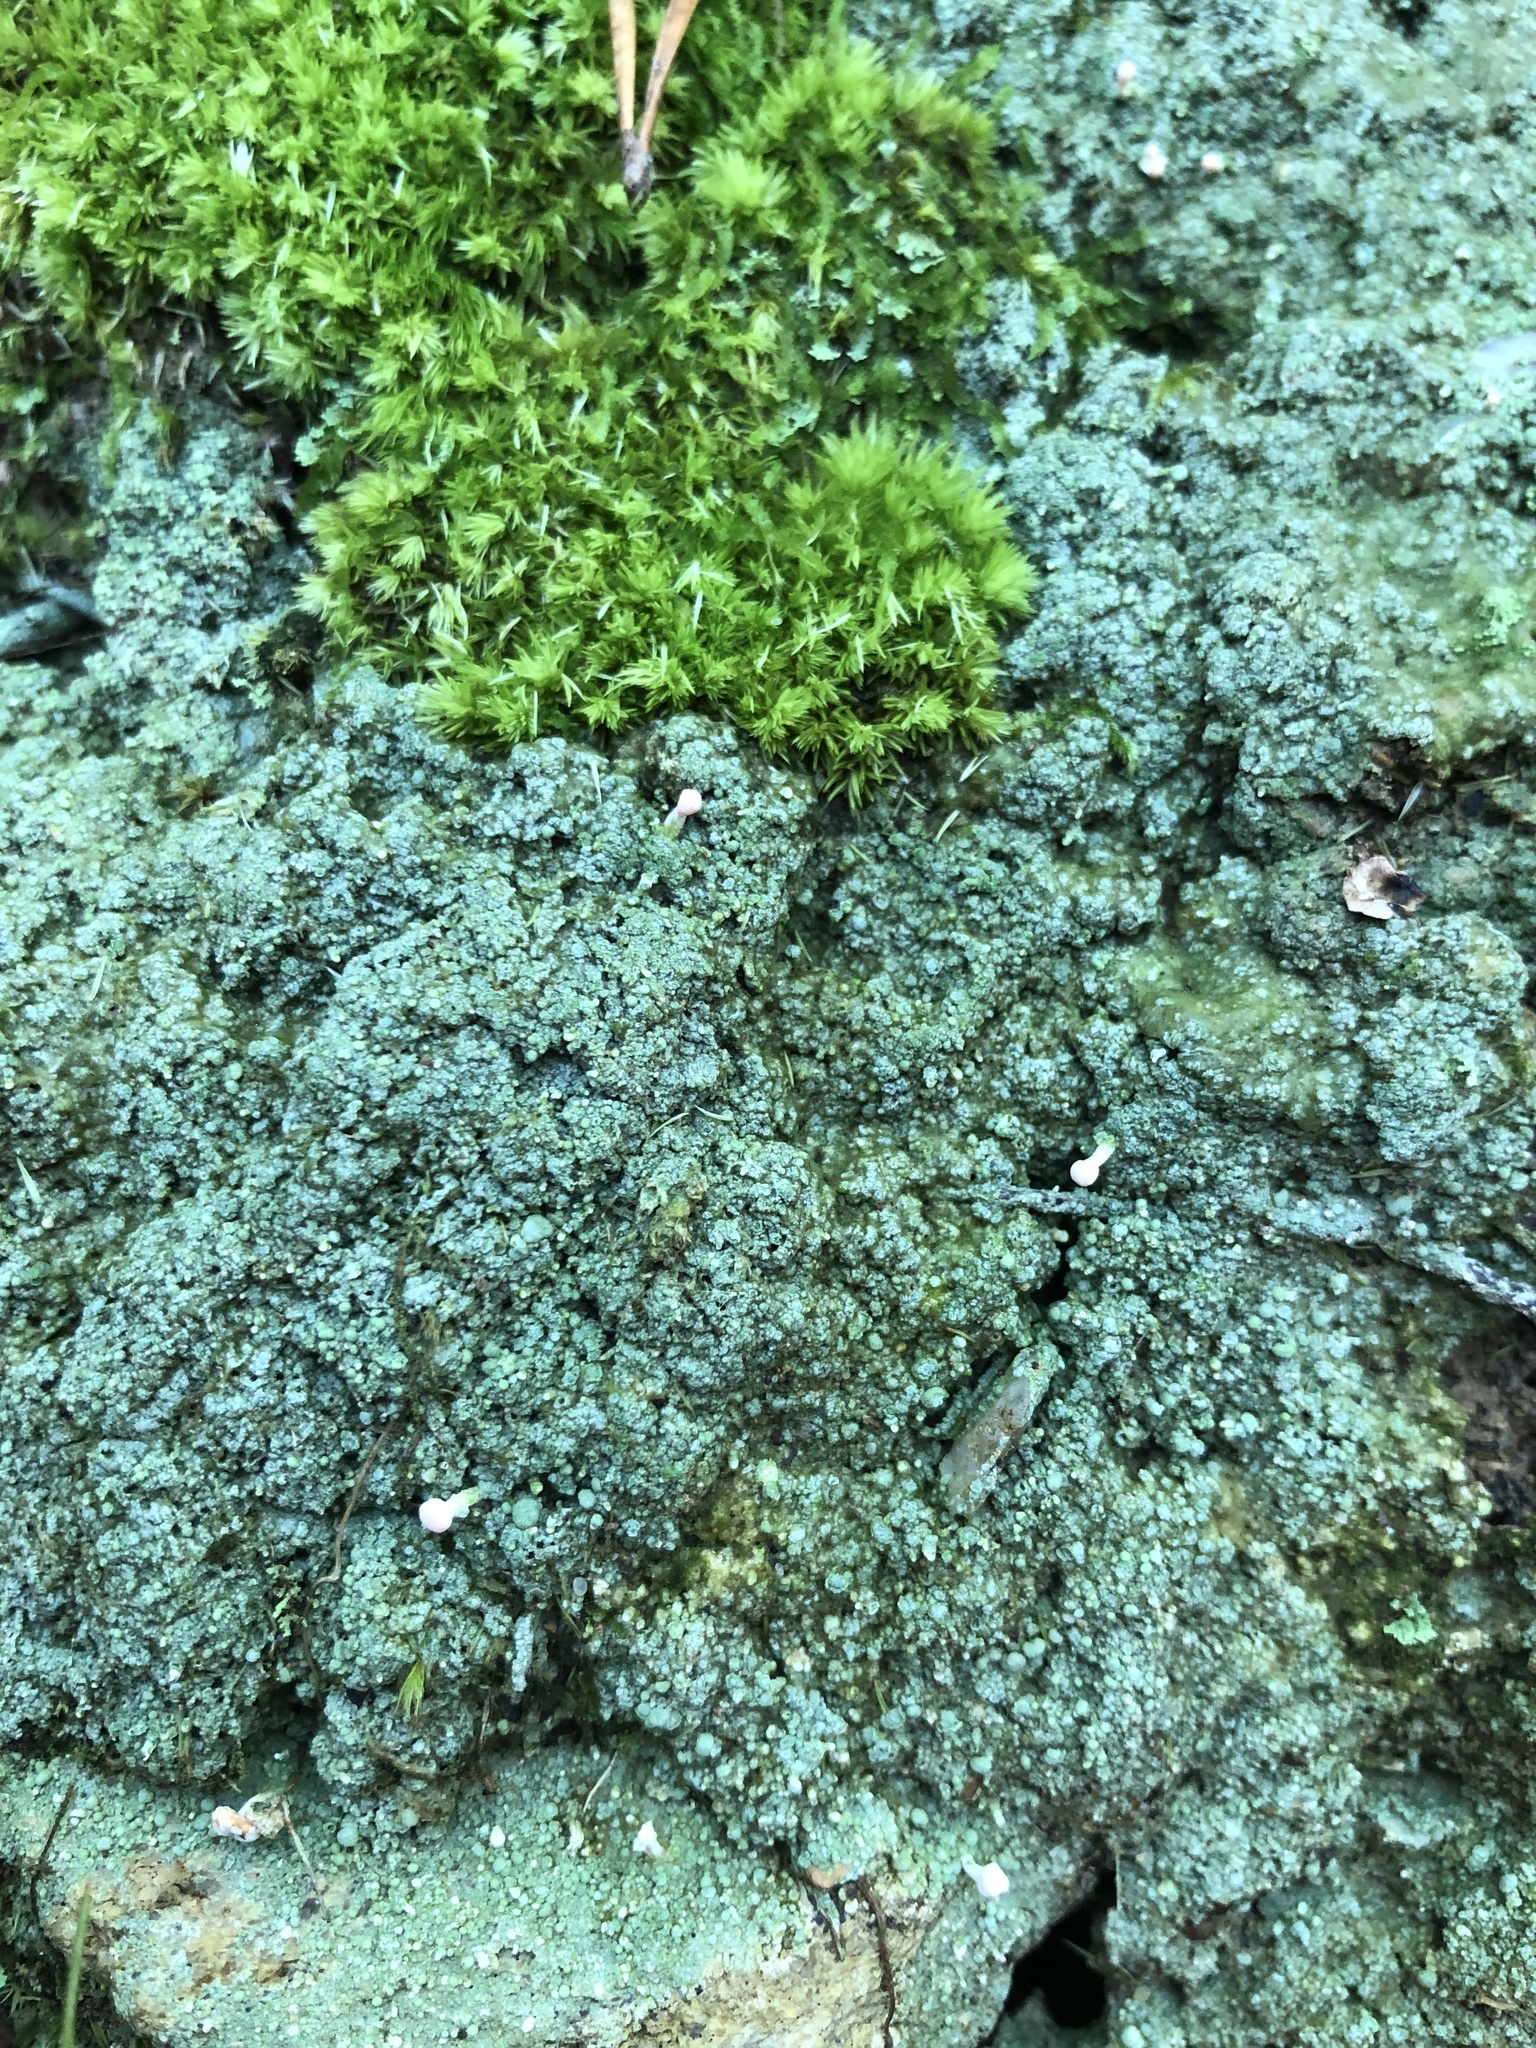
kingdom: Fungi
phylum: Ascomycota
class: Lecanoromycetes
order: Pertusariales
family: Icmadophilaceae
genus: Dibaeis
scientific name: Dibaeis baeomyces
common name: Pink earth lichen
